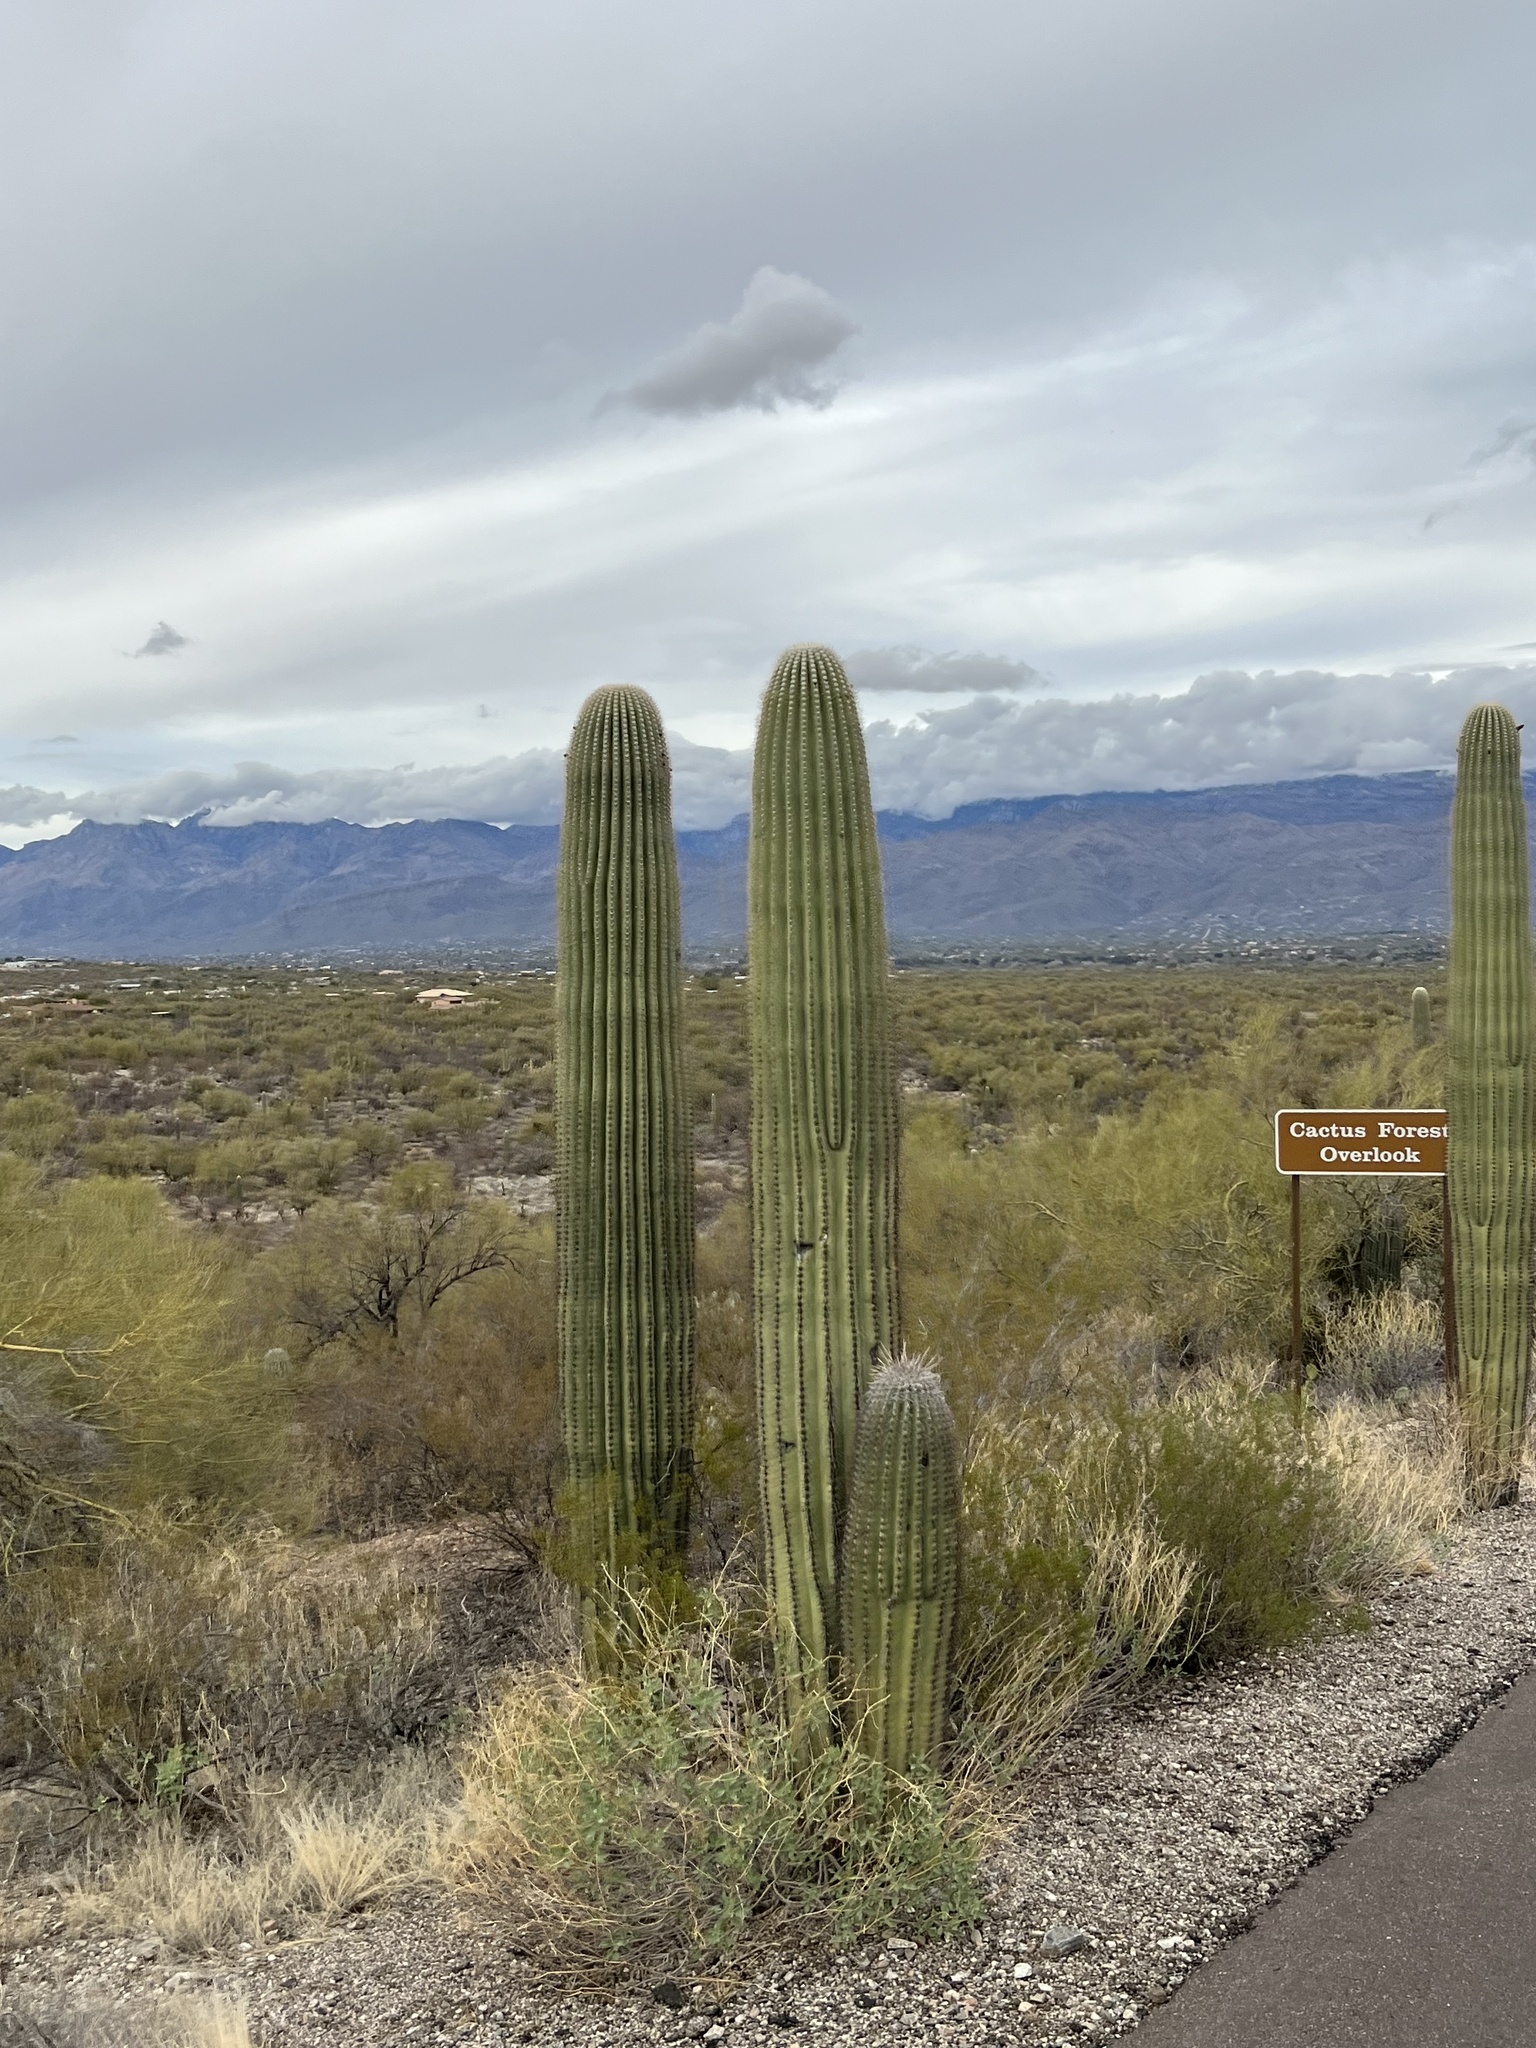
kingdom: Plantae
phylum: Tracheophyta
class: Magnoliopsida
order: Caryophyllales
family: Cactaceae
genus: Carnegiea
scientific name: Carnegiea gigantea
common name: Saguaro
